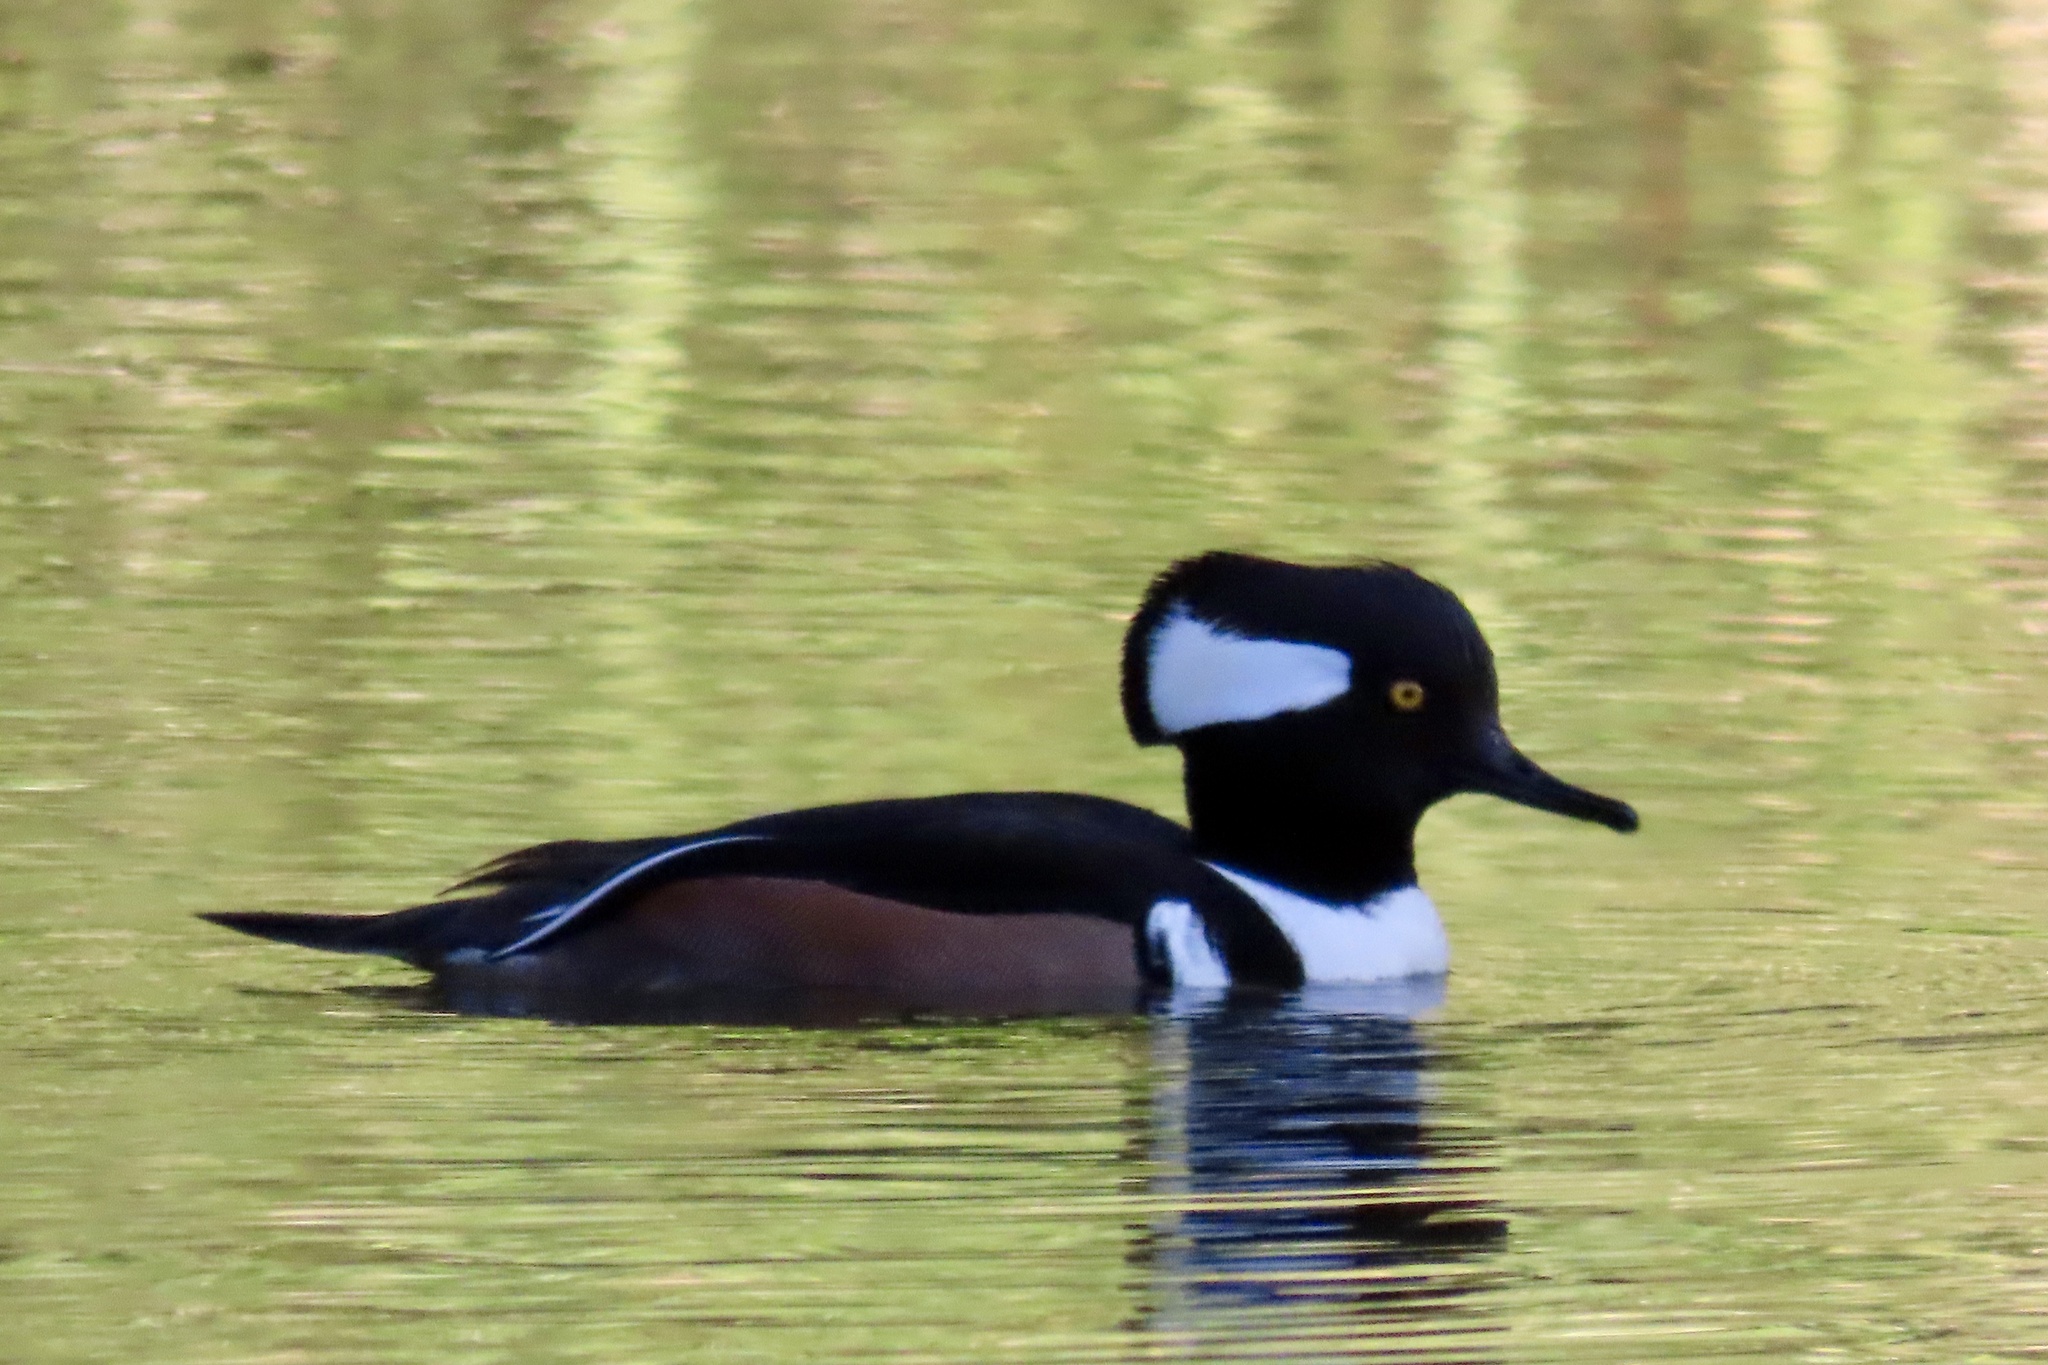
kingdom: Animalia
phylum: Chordata
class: Aves
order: Anseriformes
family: Anatidae
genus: Lophodytes
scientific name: Lophodytes cucullatus
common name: Hooded merganser
